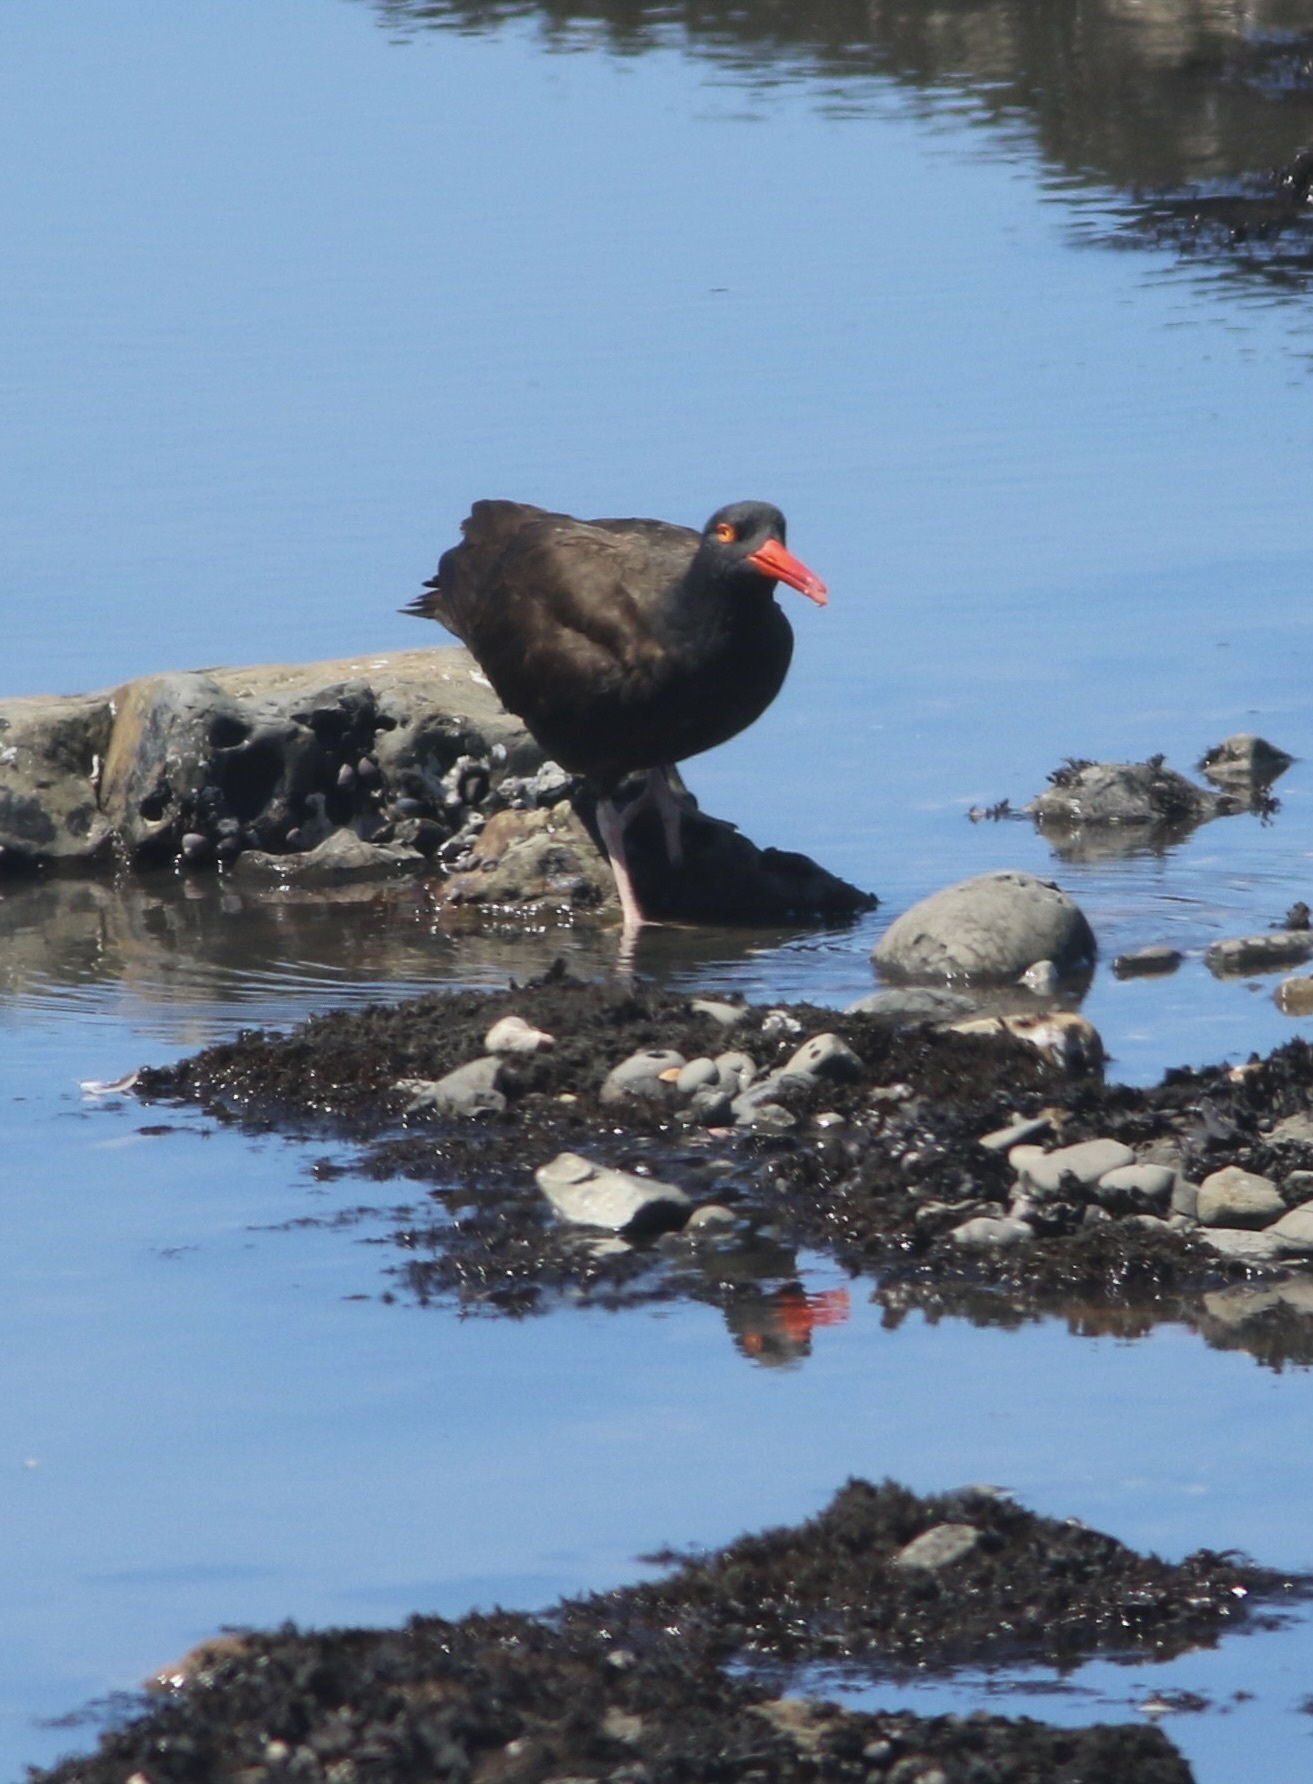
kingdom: Animalia
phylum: Chordata
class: Aves
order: Charadriiformes
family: Haematopodidae
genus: Haematopus
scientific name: Haematopus bachmani
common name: Black oystercatcher
